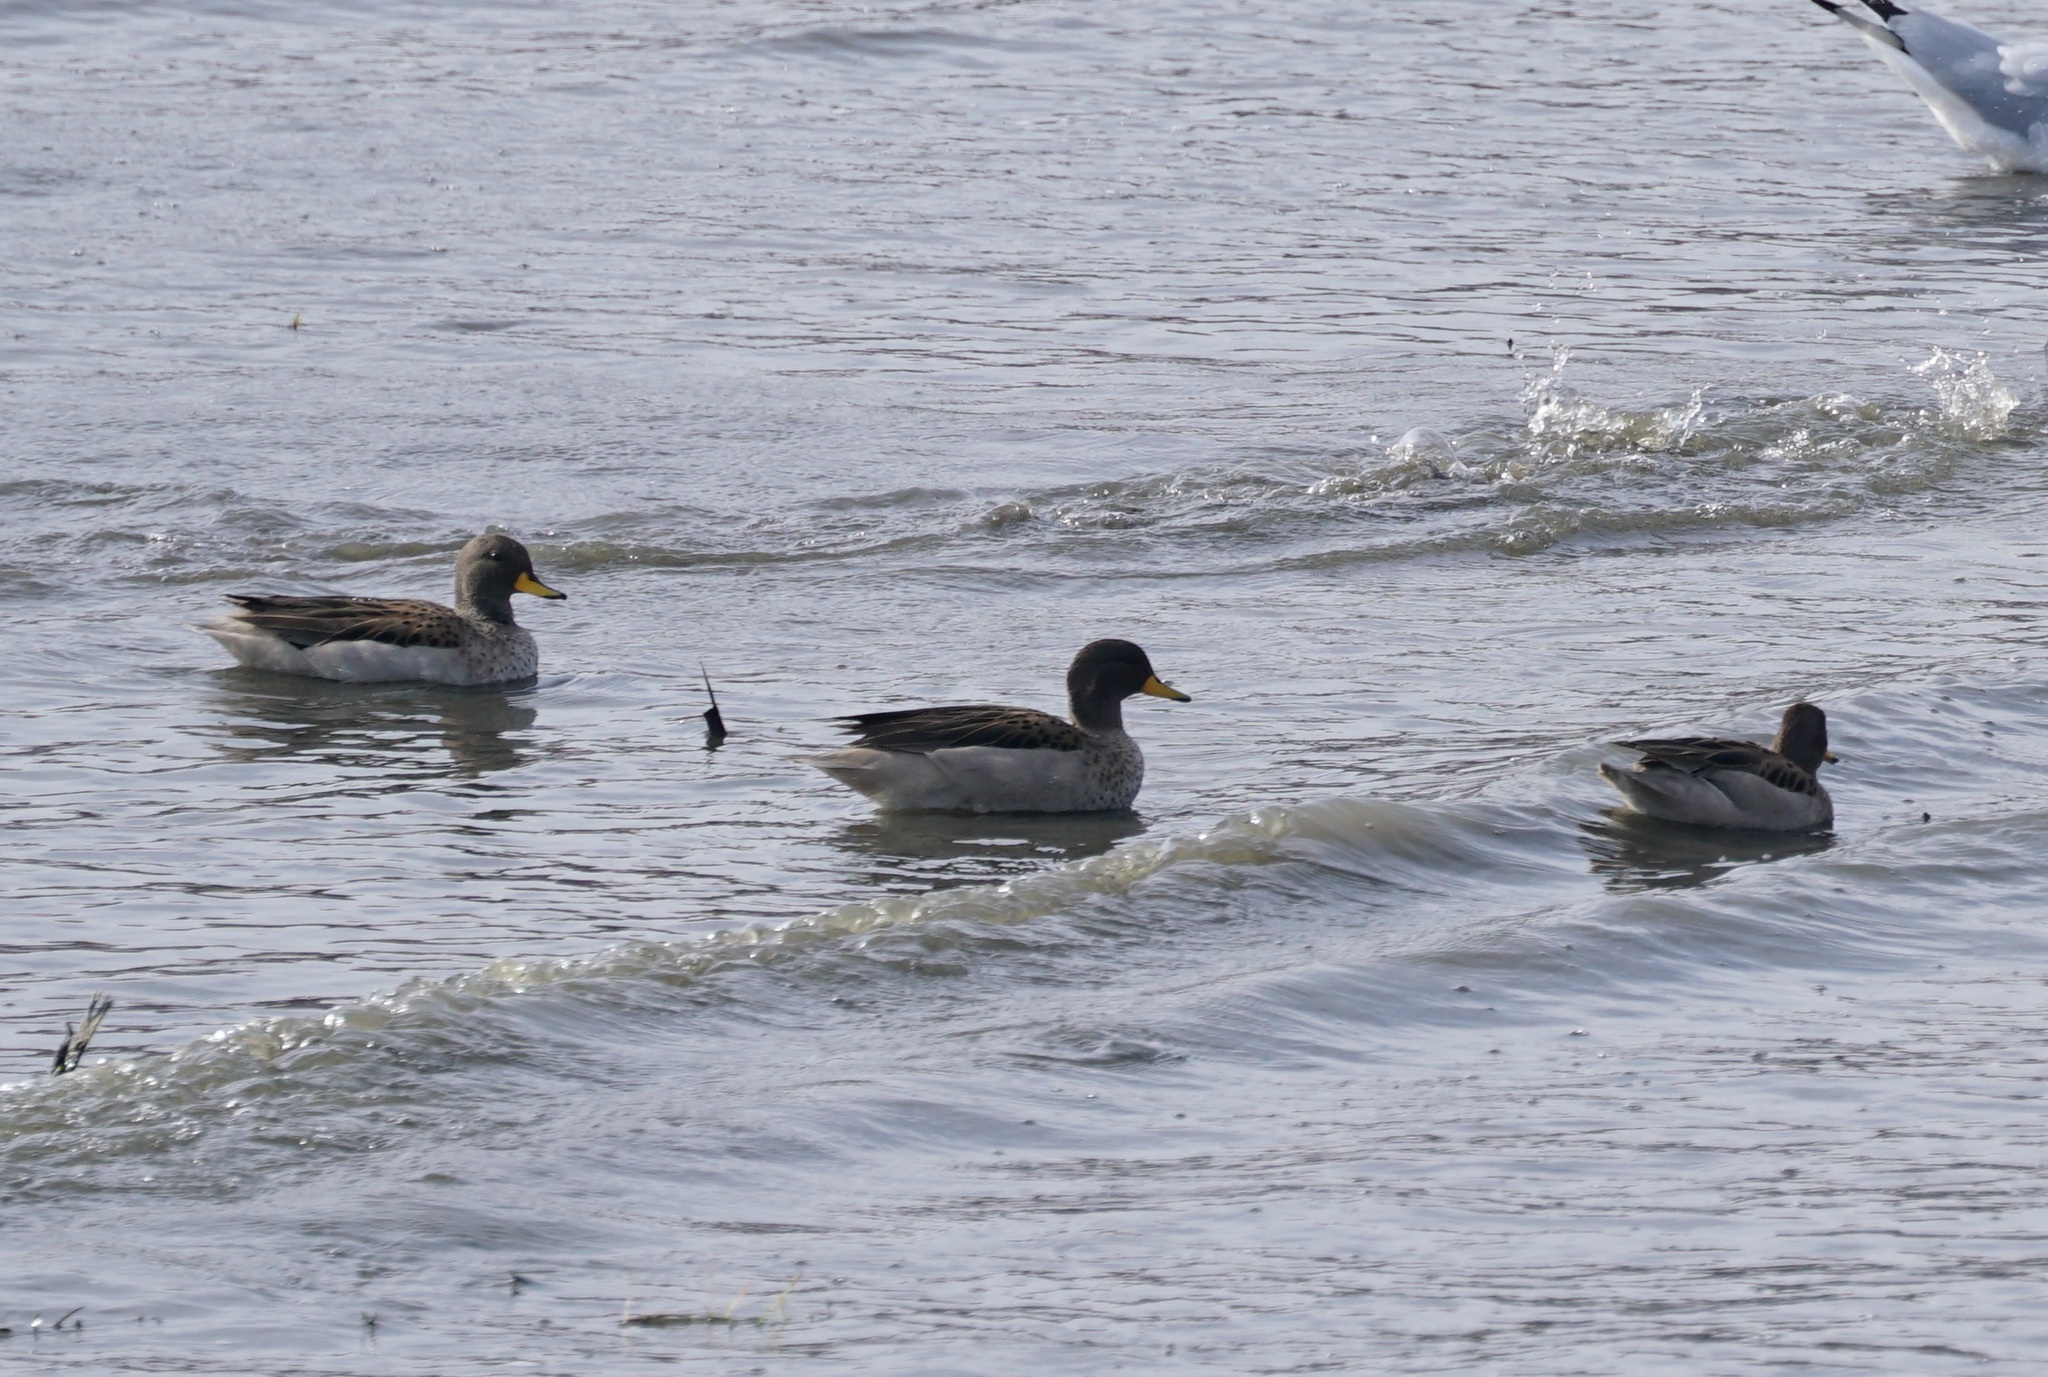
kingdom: Animalia
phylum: Chordata
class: Aves
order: Anseriformes
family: Anatidae
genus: Anas
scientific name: Anas flavirostris
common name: Yellow-billed teal
